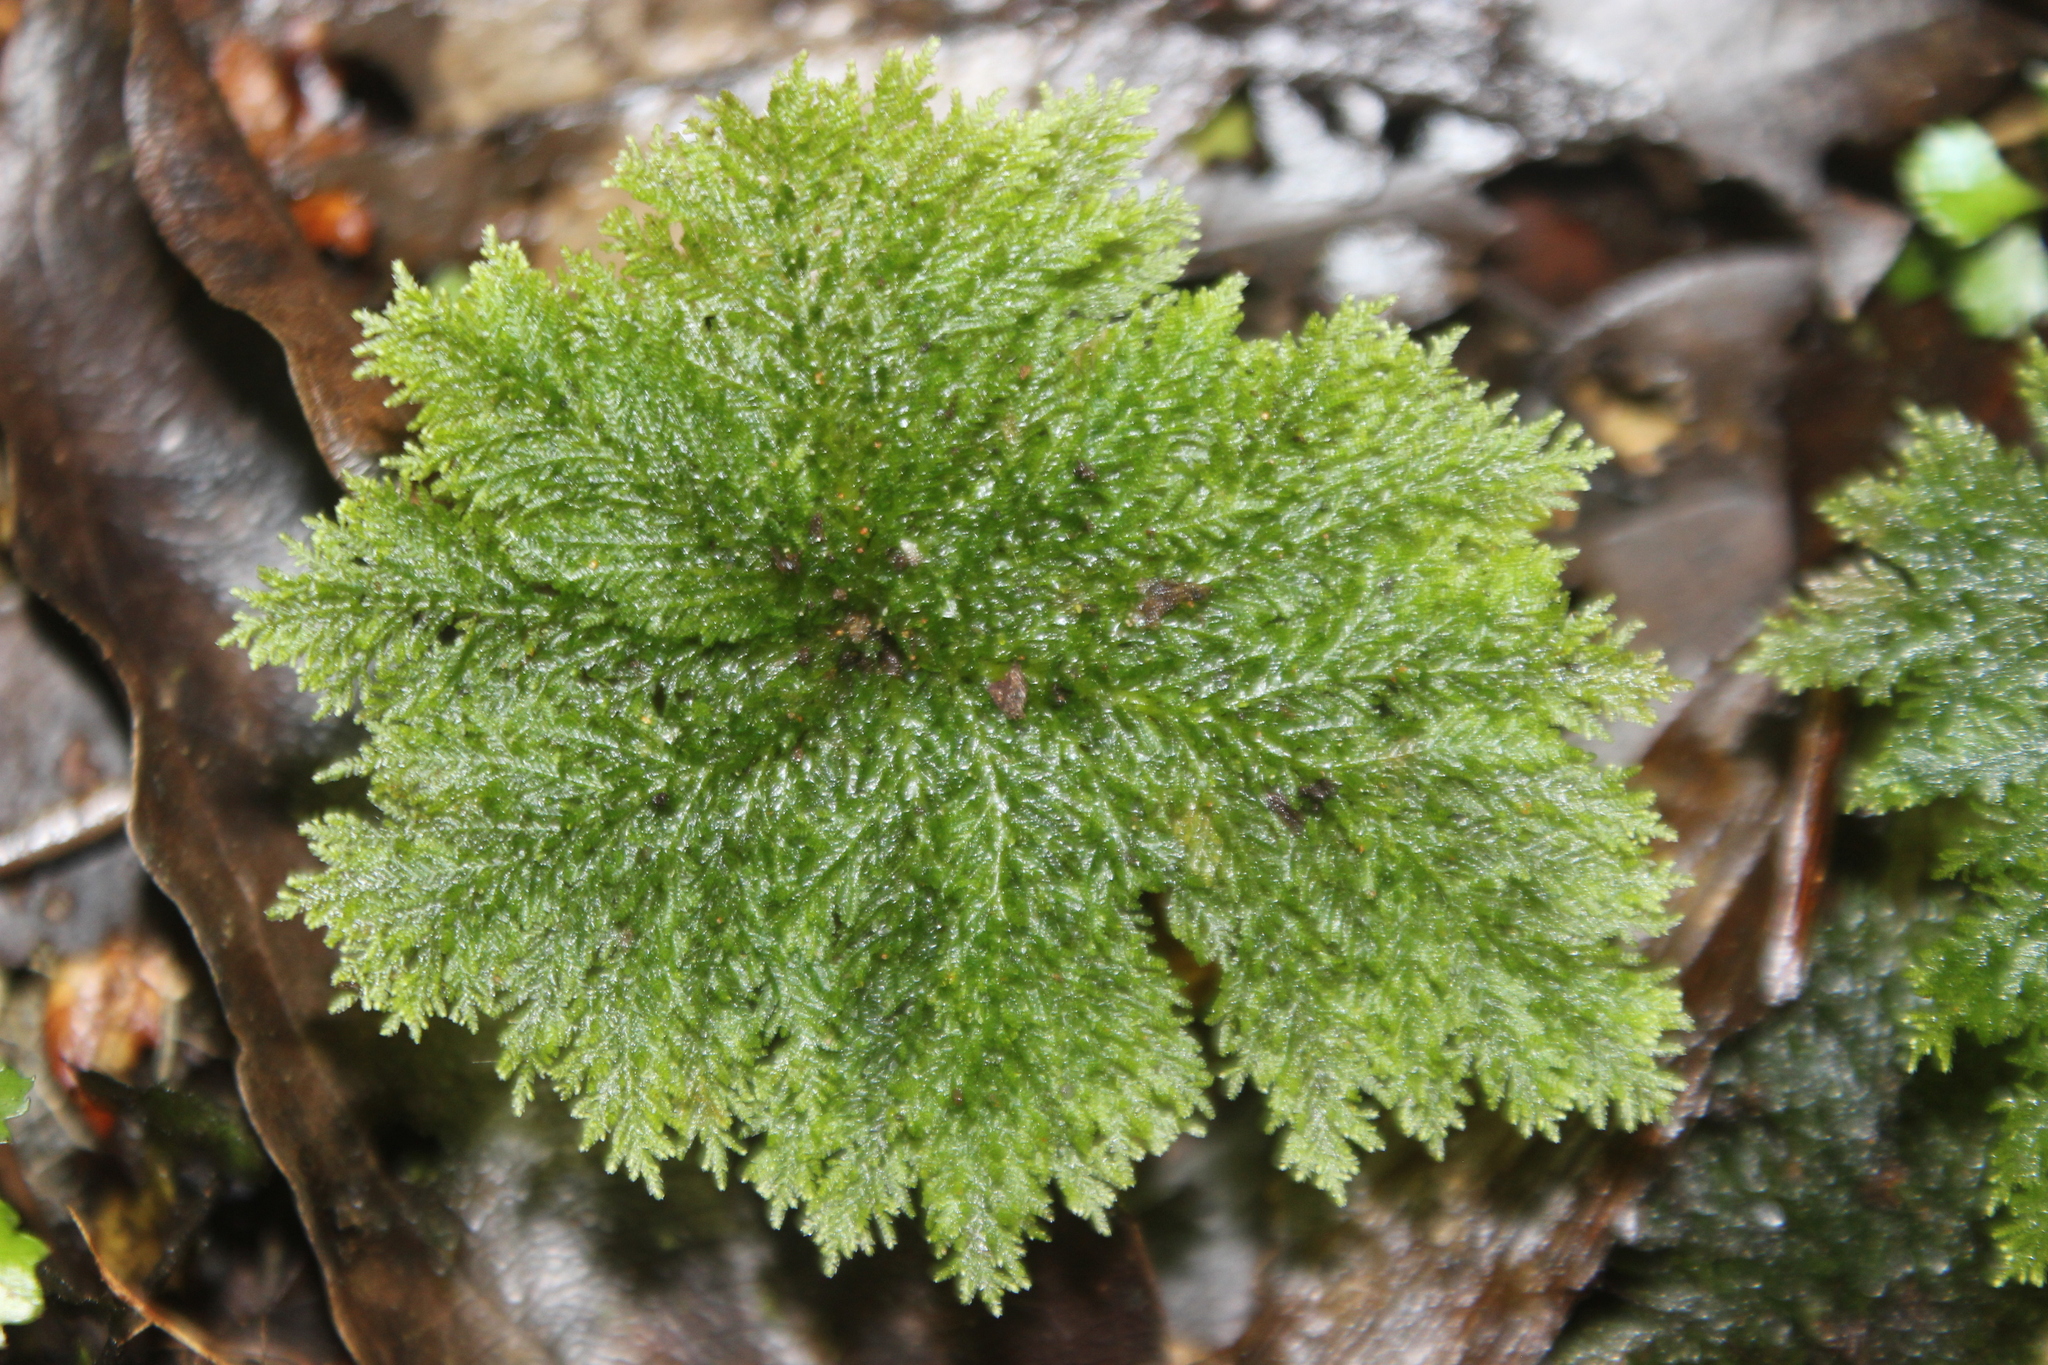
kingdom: Plantae
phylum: Bryophyta
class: Bryopsida
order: Hypopterygiales
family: Hypopterygiaceae
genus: Dendrohypopterygium
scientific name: Dendrohypopterygium filiculiforme
